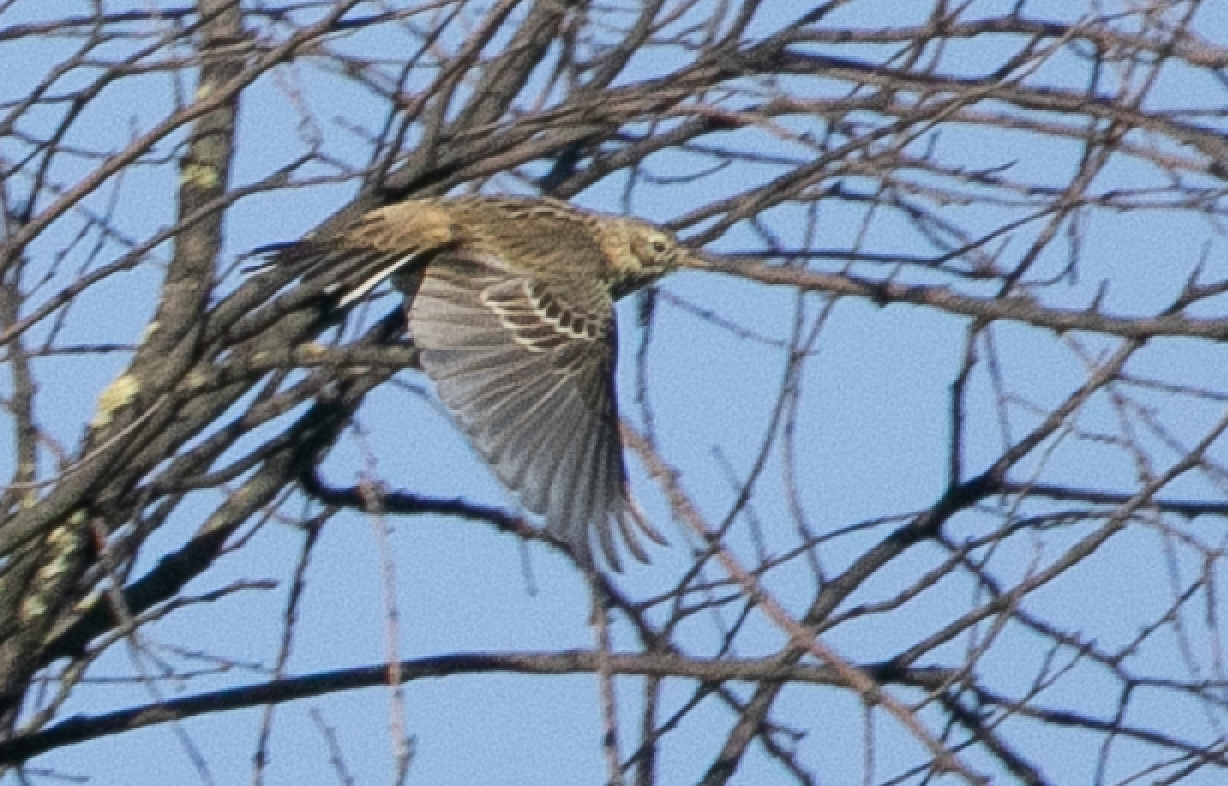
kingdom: Animalia
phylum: Chordata
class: Aves
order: Passeriformes
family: Motacillidae
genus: Anthus
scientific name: Anthus pratensis
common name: Meadow pipit
